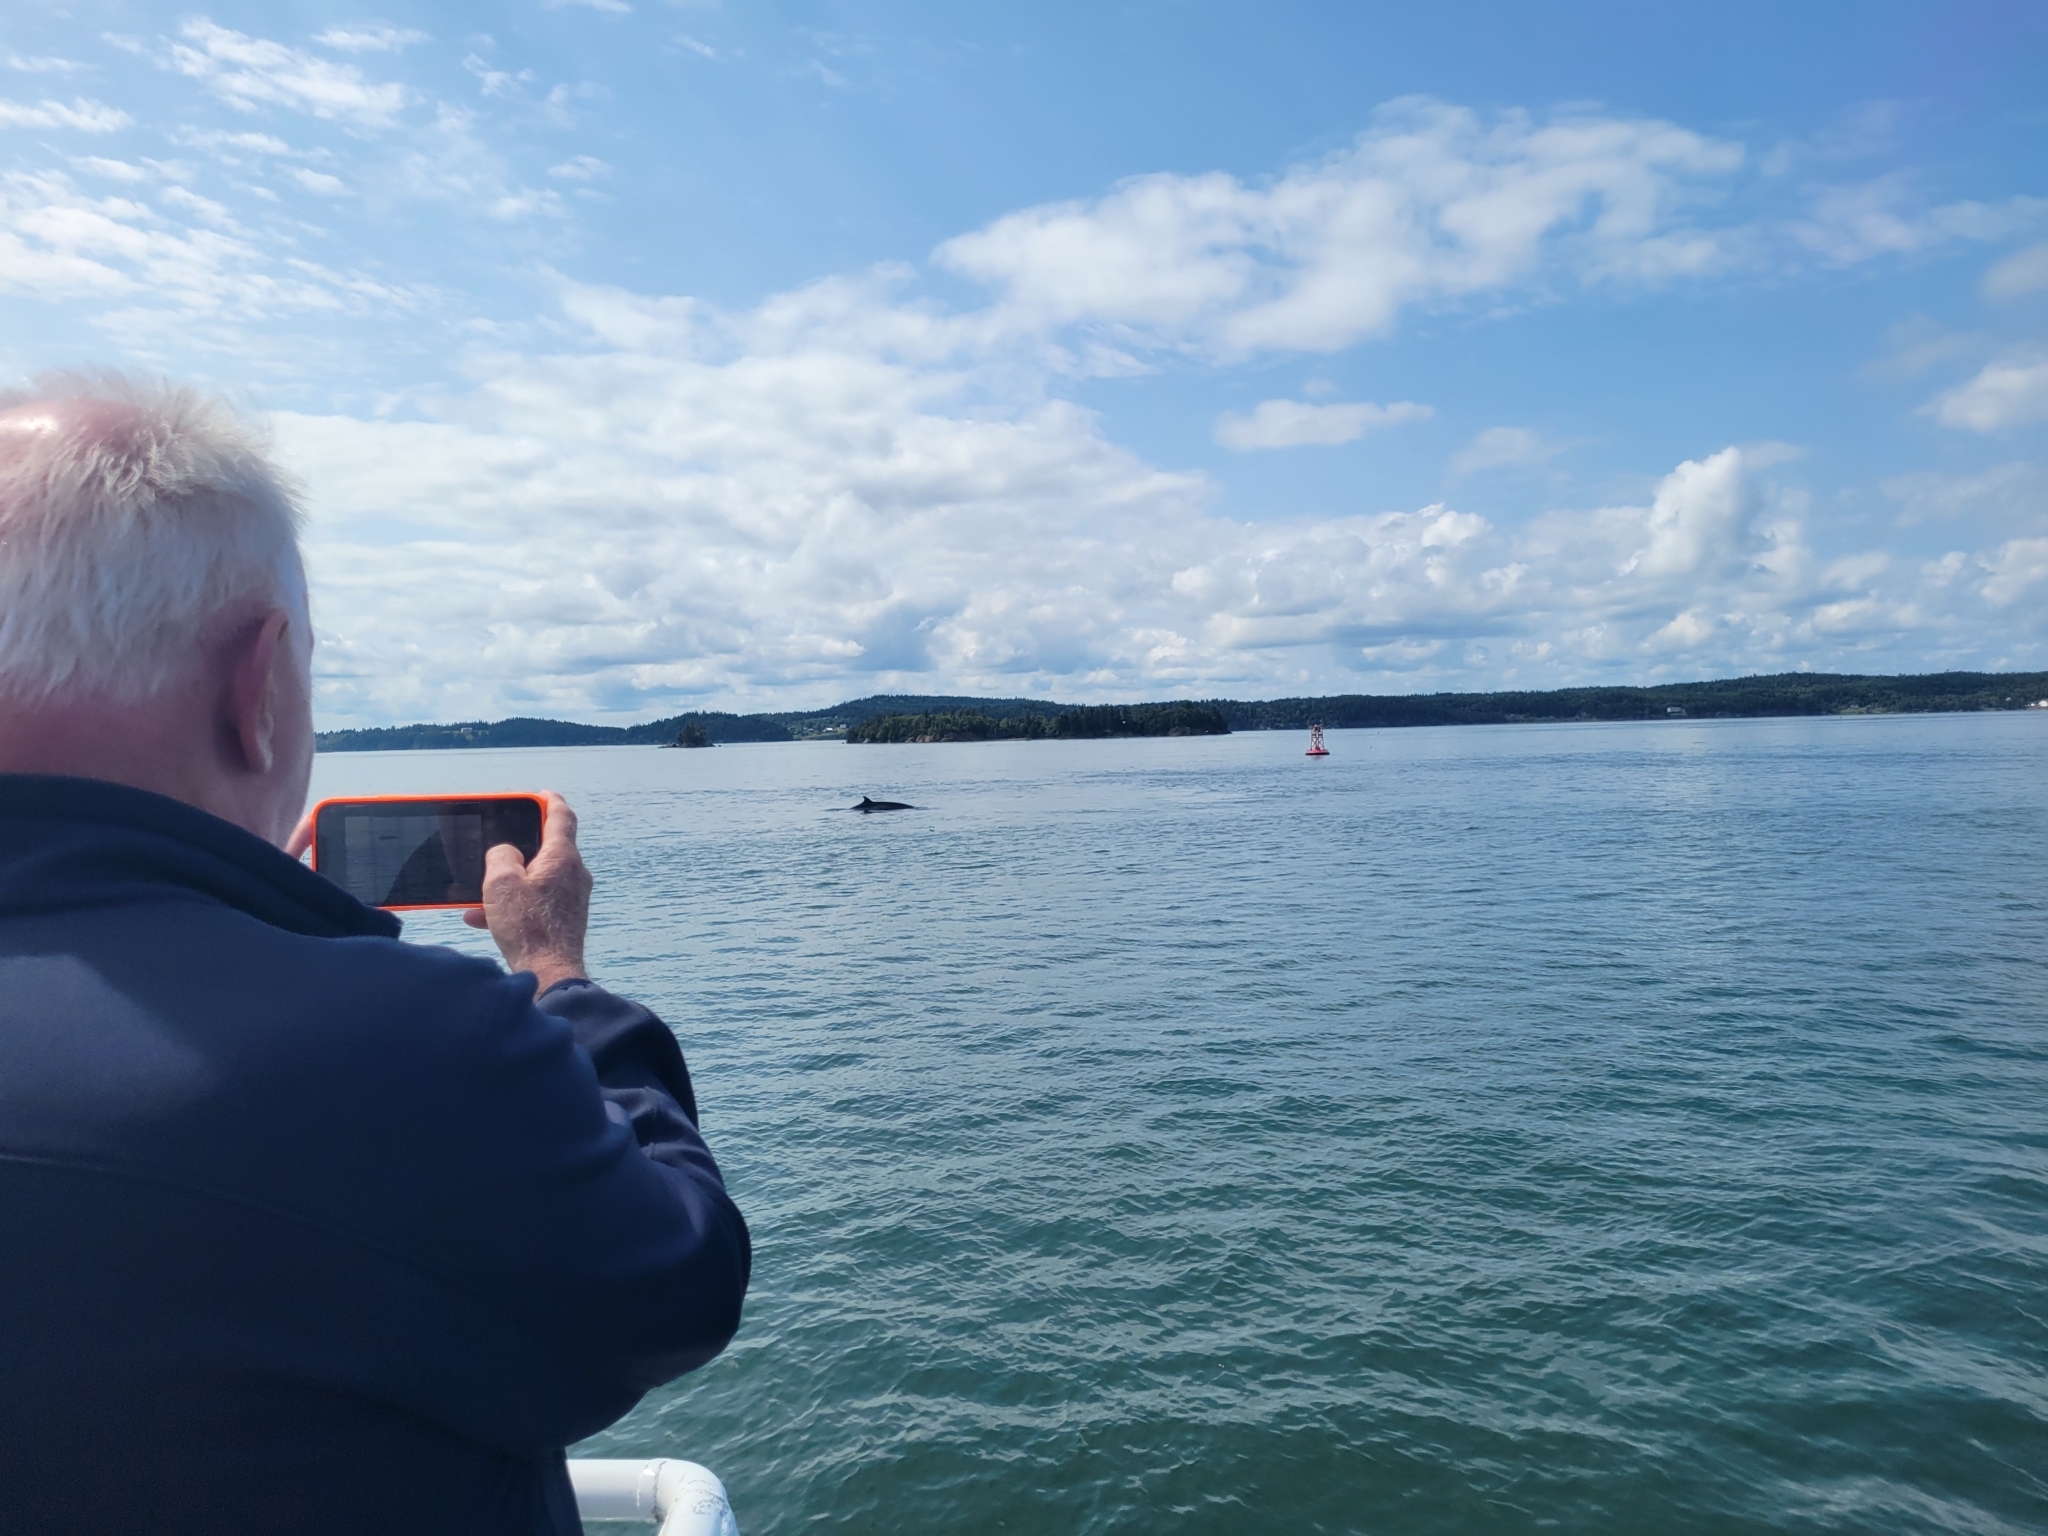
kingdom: Animalia
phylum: Chordata
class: Mammalia
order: Cetacea
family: Balaenopteridae
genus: Balaenoptera
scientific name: Balaenoptera acutorostrata
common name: Common minke whale
